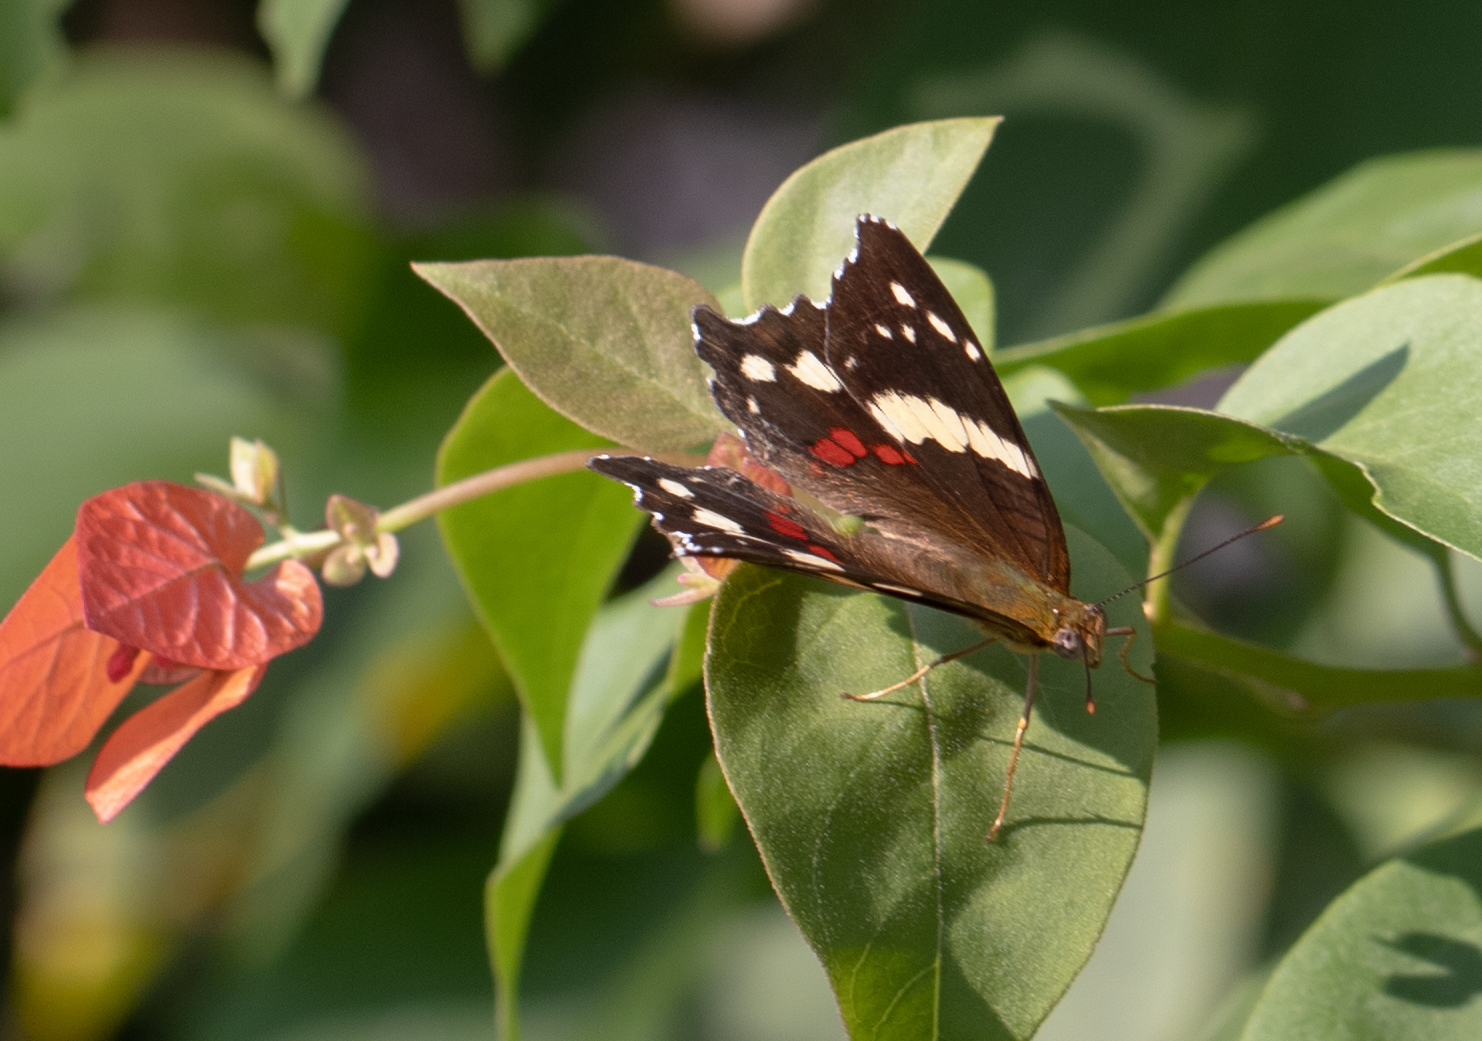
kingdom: Animalia
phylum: Arthropoda
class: Insecta
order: Lepidoptera
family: Nymphalidae
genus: Anartia
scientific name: Anartia fatima
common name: Banded peacock
